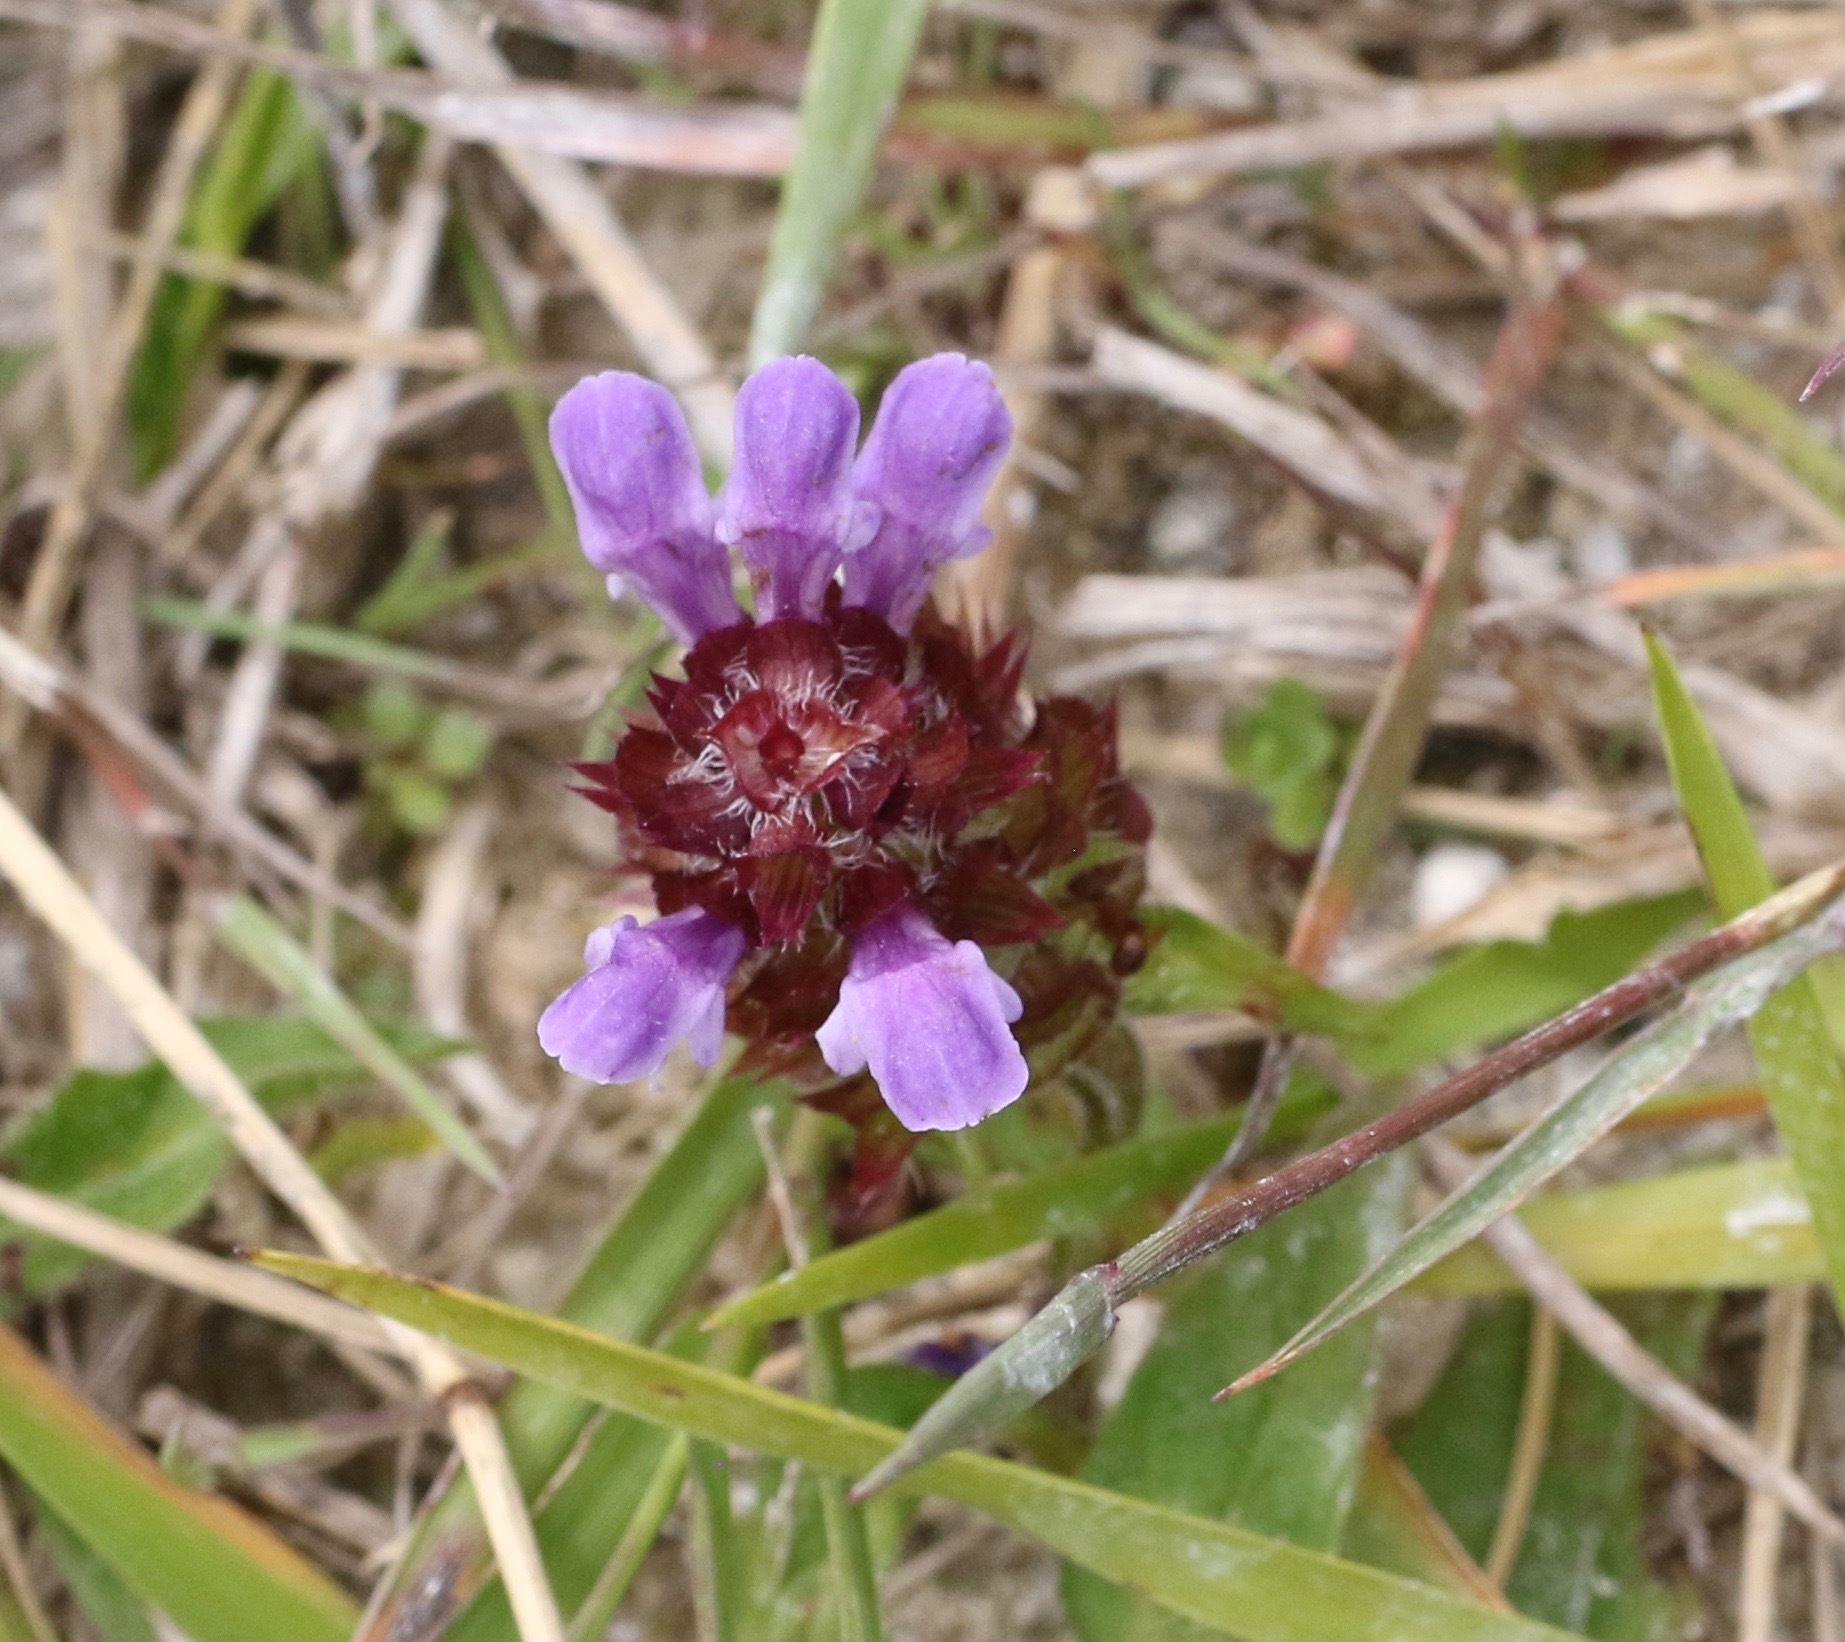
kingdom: Plantae
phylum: Tracheophyta
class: Magnoliopsida
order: Lamiales
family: Lamiaceae
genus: Prunella
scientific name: Prunella vulgaris
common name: Heal-all
